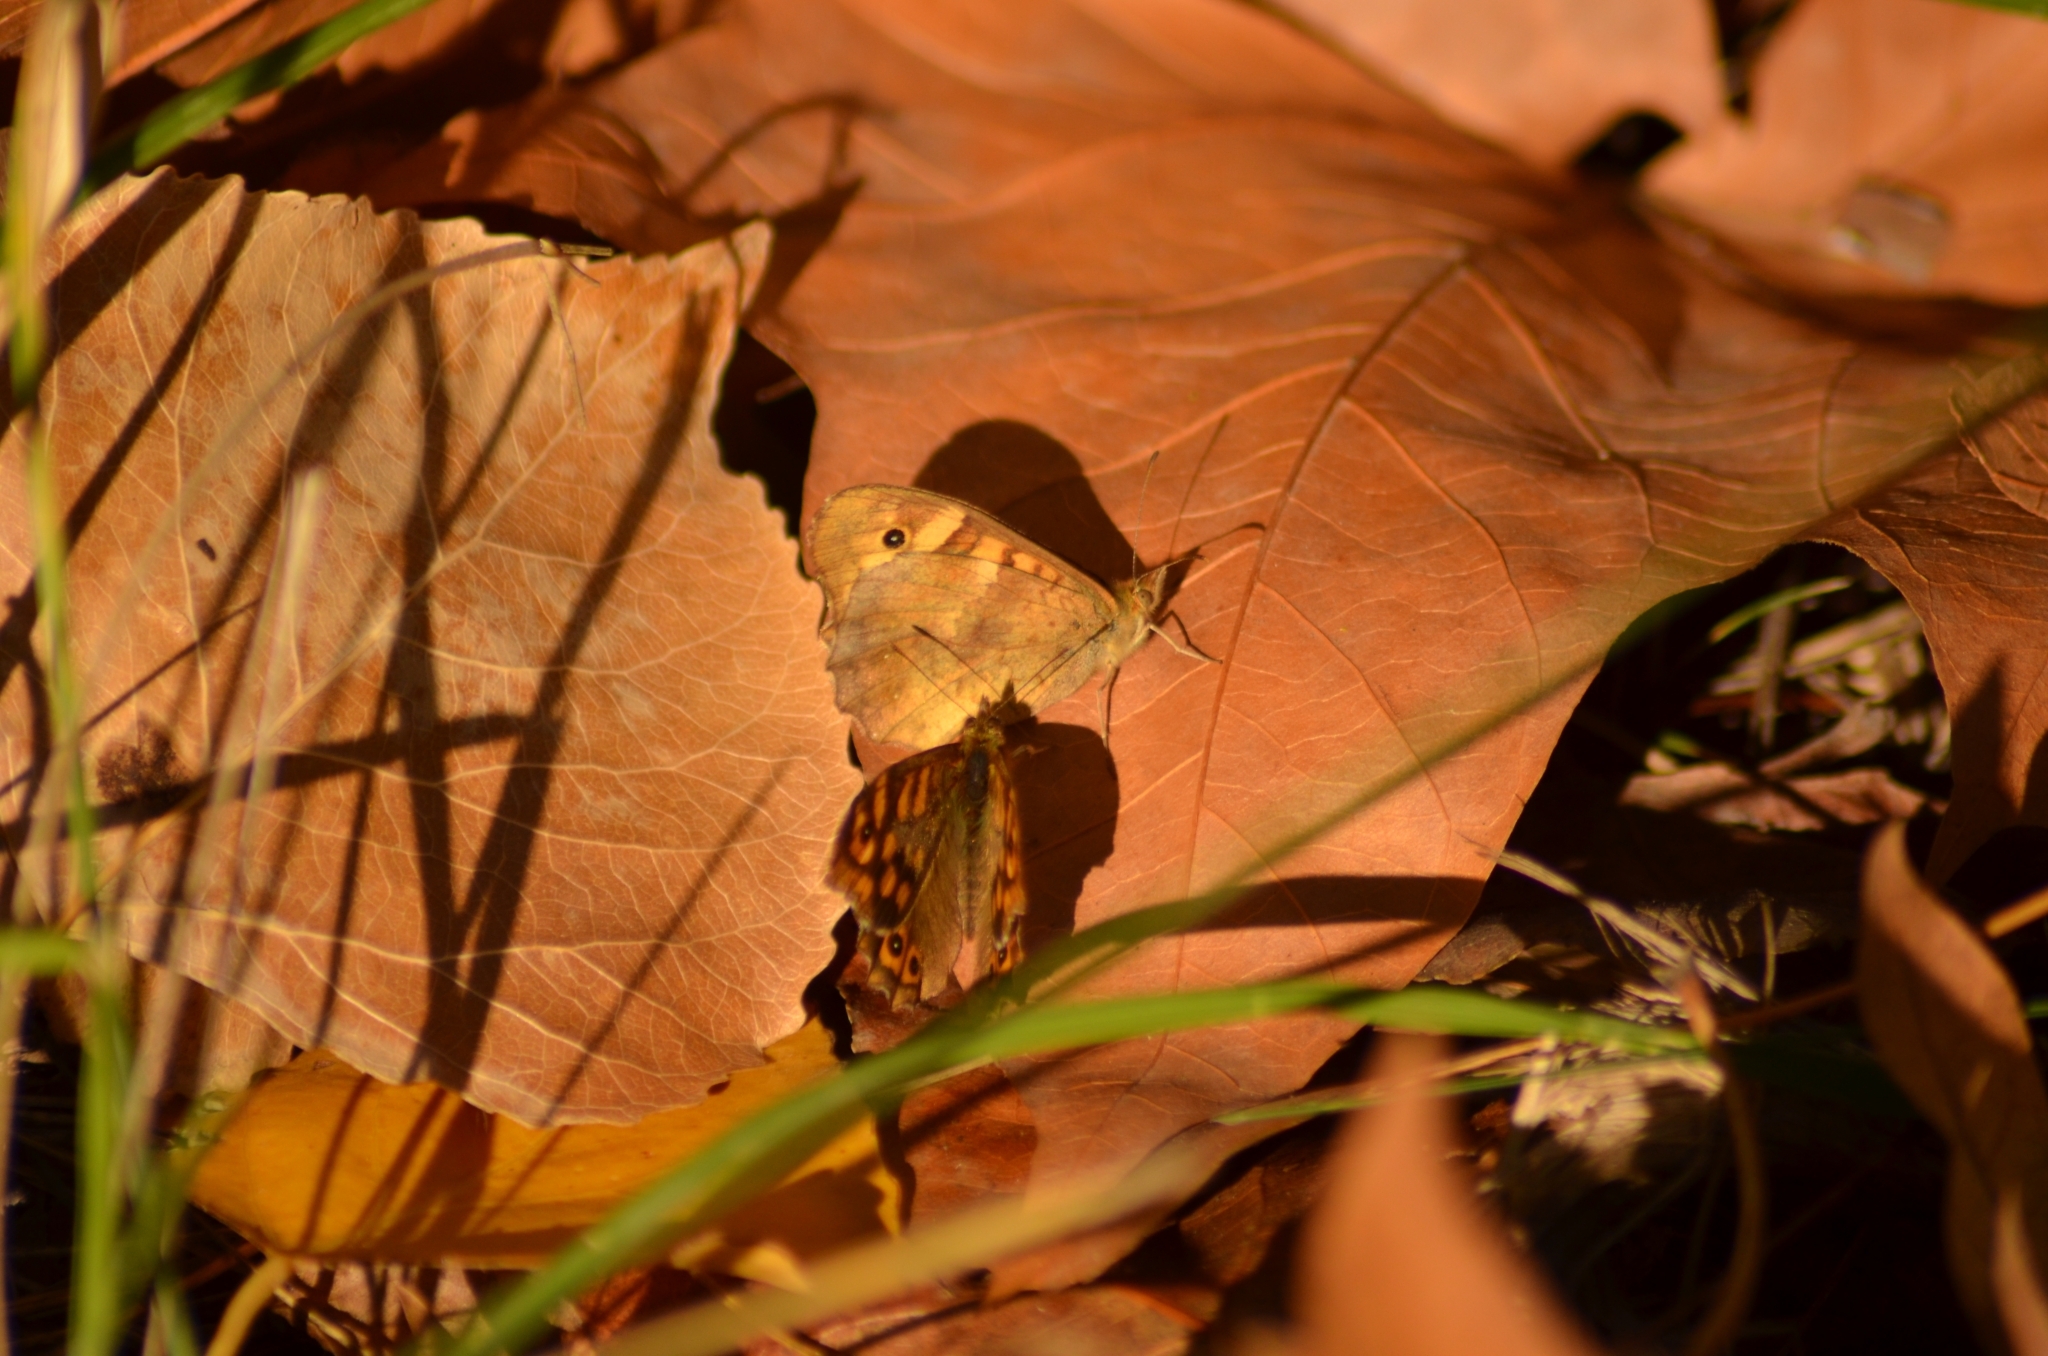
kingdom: Animalia
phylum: Arthropoda
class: Insecta
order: Lepidoptera
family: Nymphalidae
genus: Pararge
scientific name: Pararge aegeria
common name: Speckled wood
